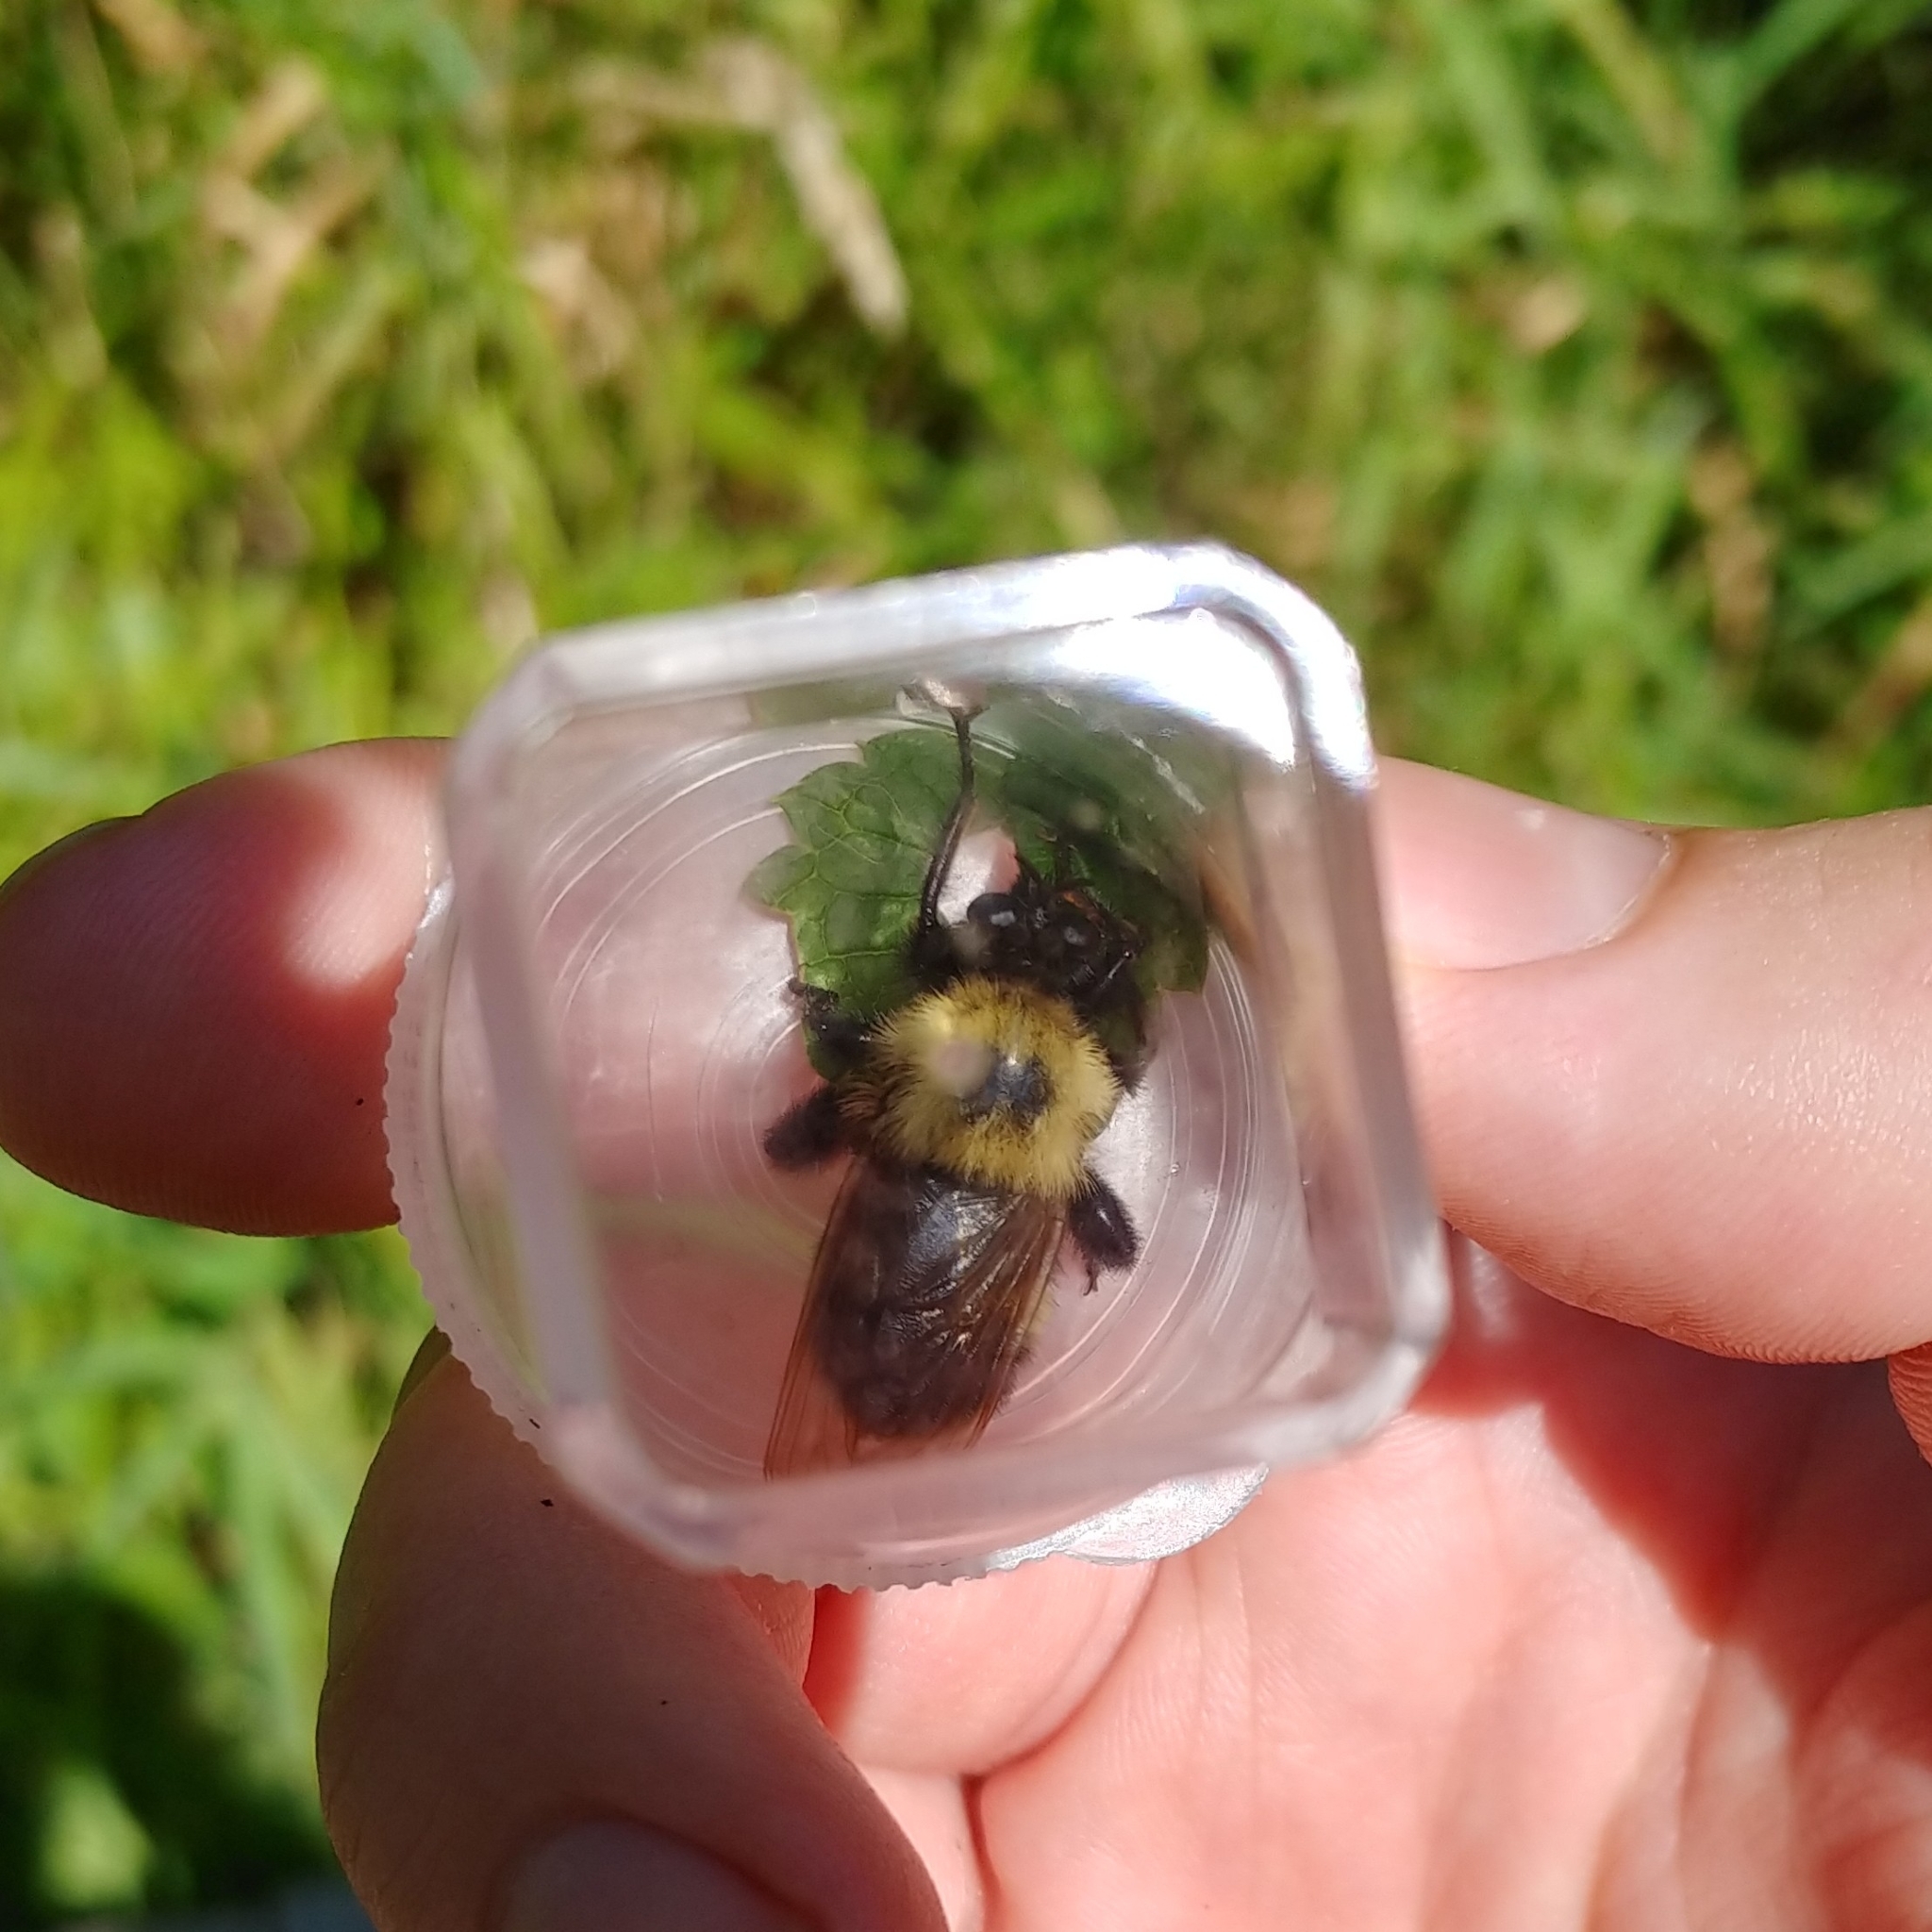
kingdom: Animalia
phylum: Arthropoda
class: Insecta
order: Diptera
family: Asilidae
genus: Laphria
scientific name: Laphria thoracica
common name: Bumble bee mimic robber fly
